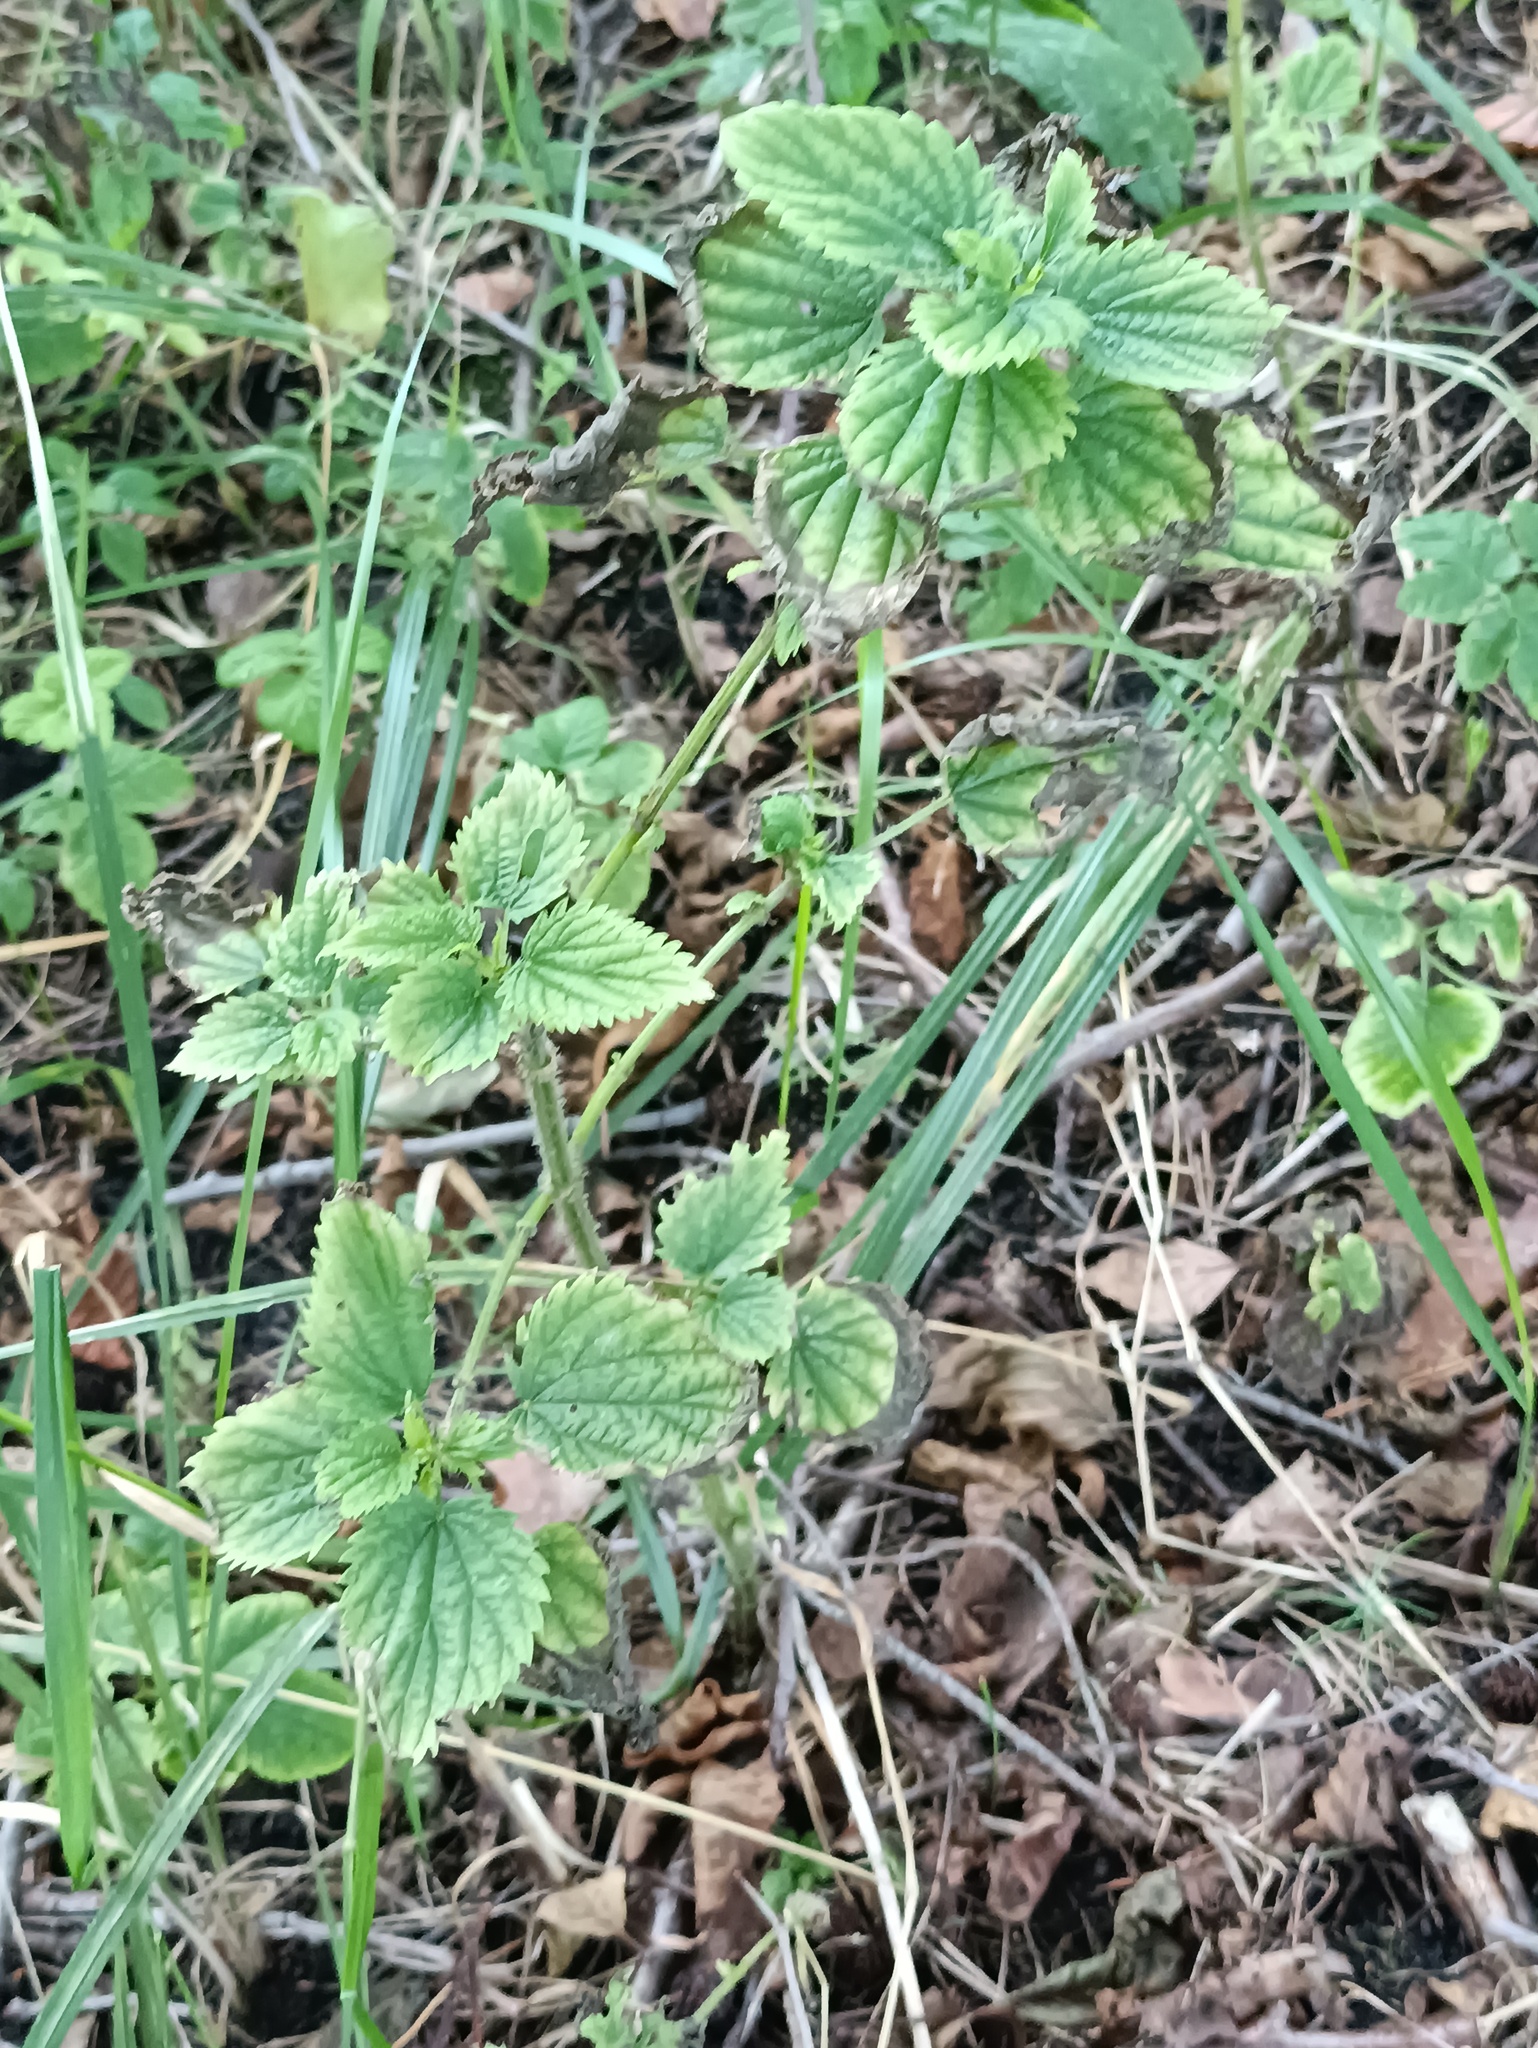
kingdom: Plantae
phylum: Tracheophyta
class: Magnoliopsida
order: Rosales
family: Urticaceae
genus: Urtica
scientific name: Urtica dioica
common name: Common nettle
